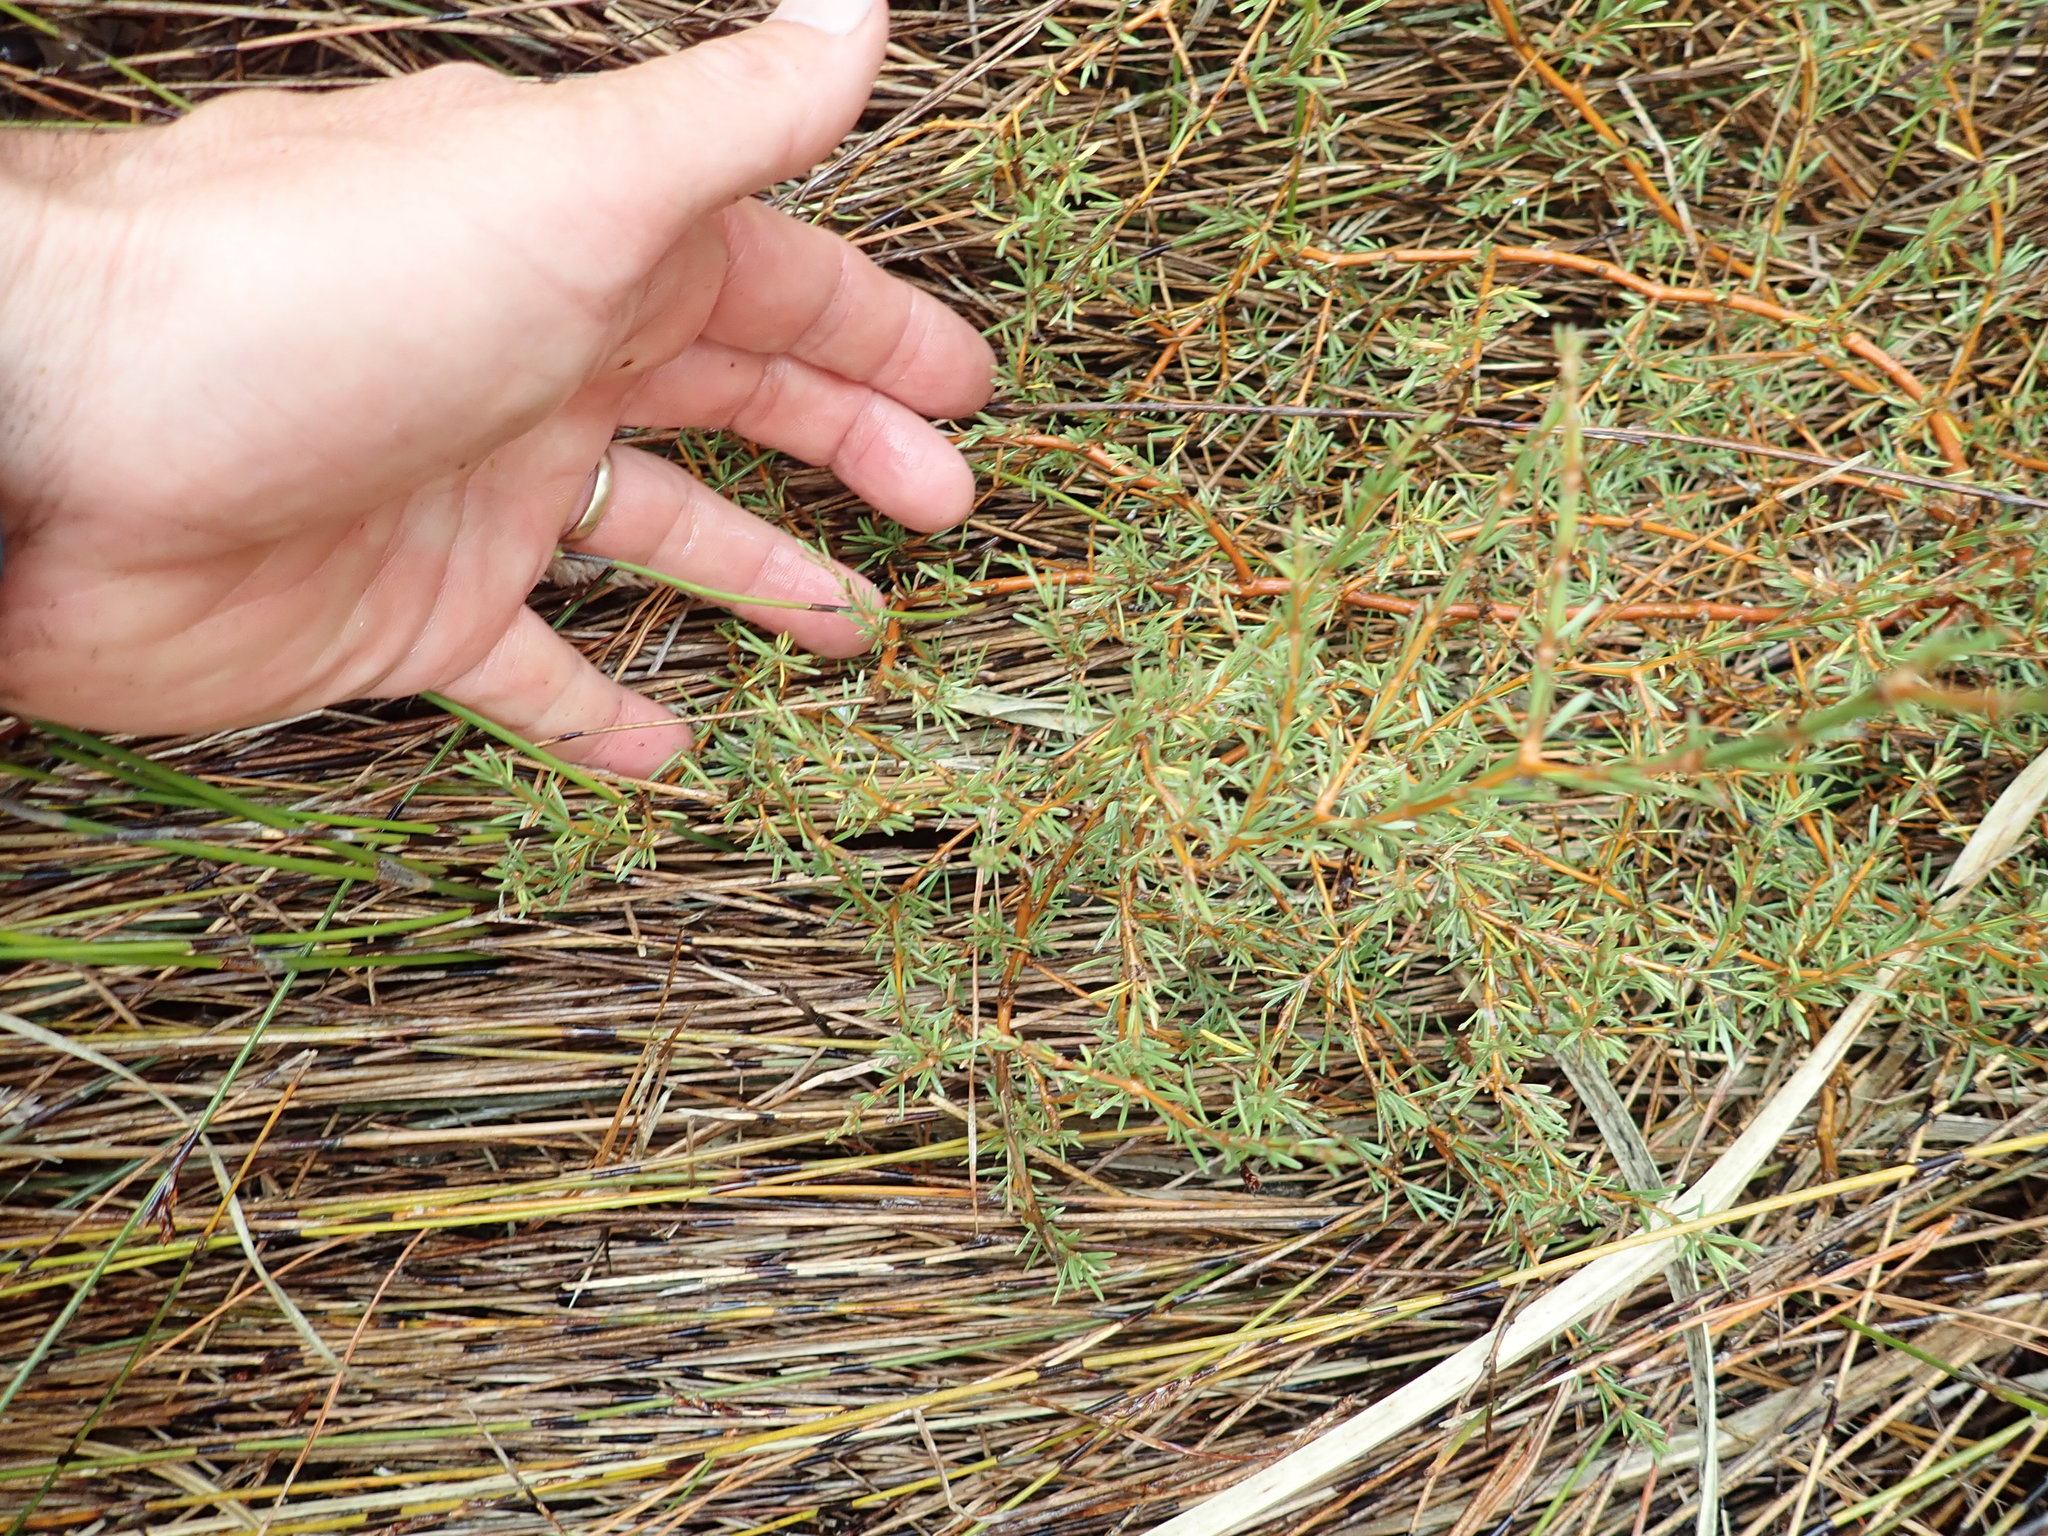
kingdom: Plantae
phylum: Tracheophyta
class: Magnoliopsida
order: Gentianales
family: Rubiaceae
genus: Coprosma
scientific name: Coprosma acerosa
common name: Sand coprosma
